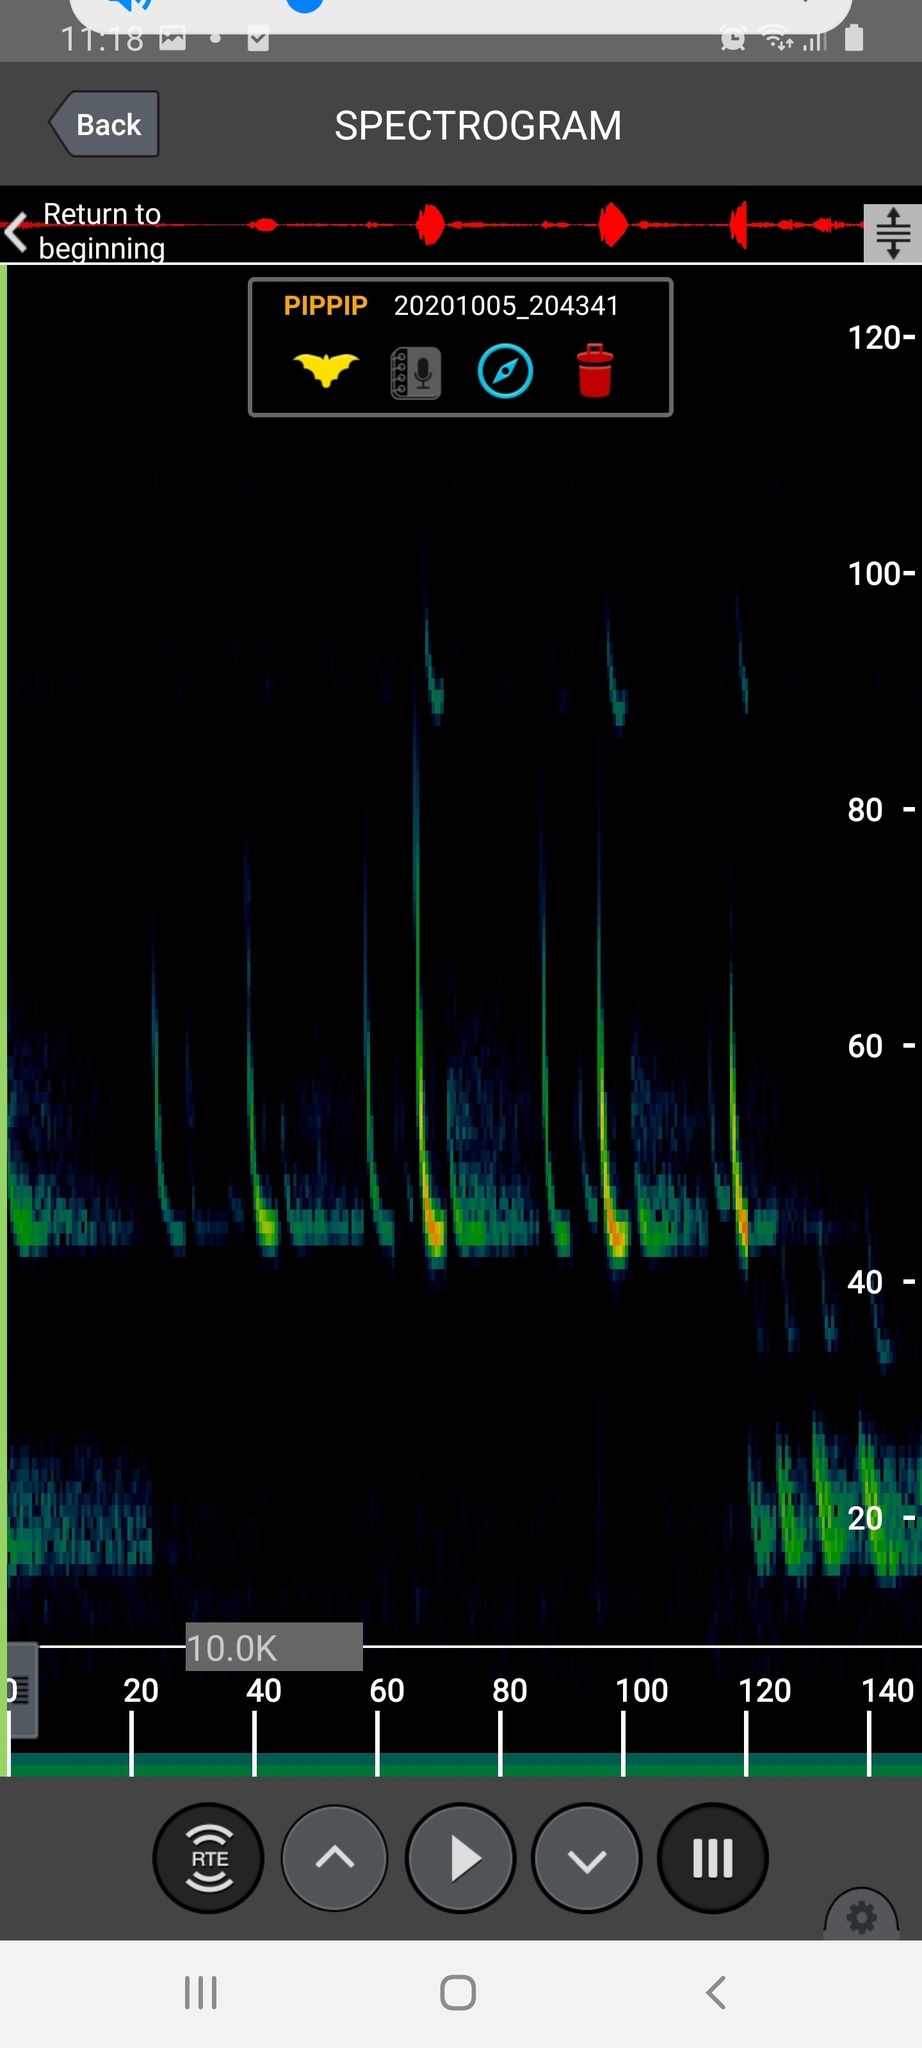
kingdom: Animalia
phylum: Chordata
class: Mammalia
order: Chiroptera
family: Vespertilionidae
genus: Pipistrellus
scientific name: Pipistrellus pipistrellus
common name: Common pipistrelle
